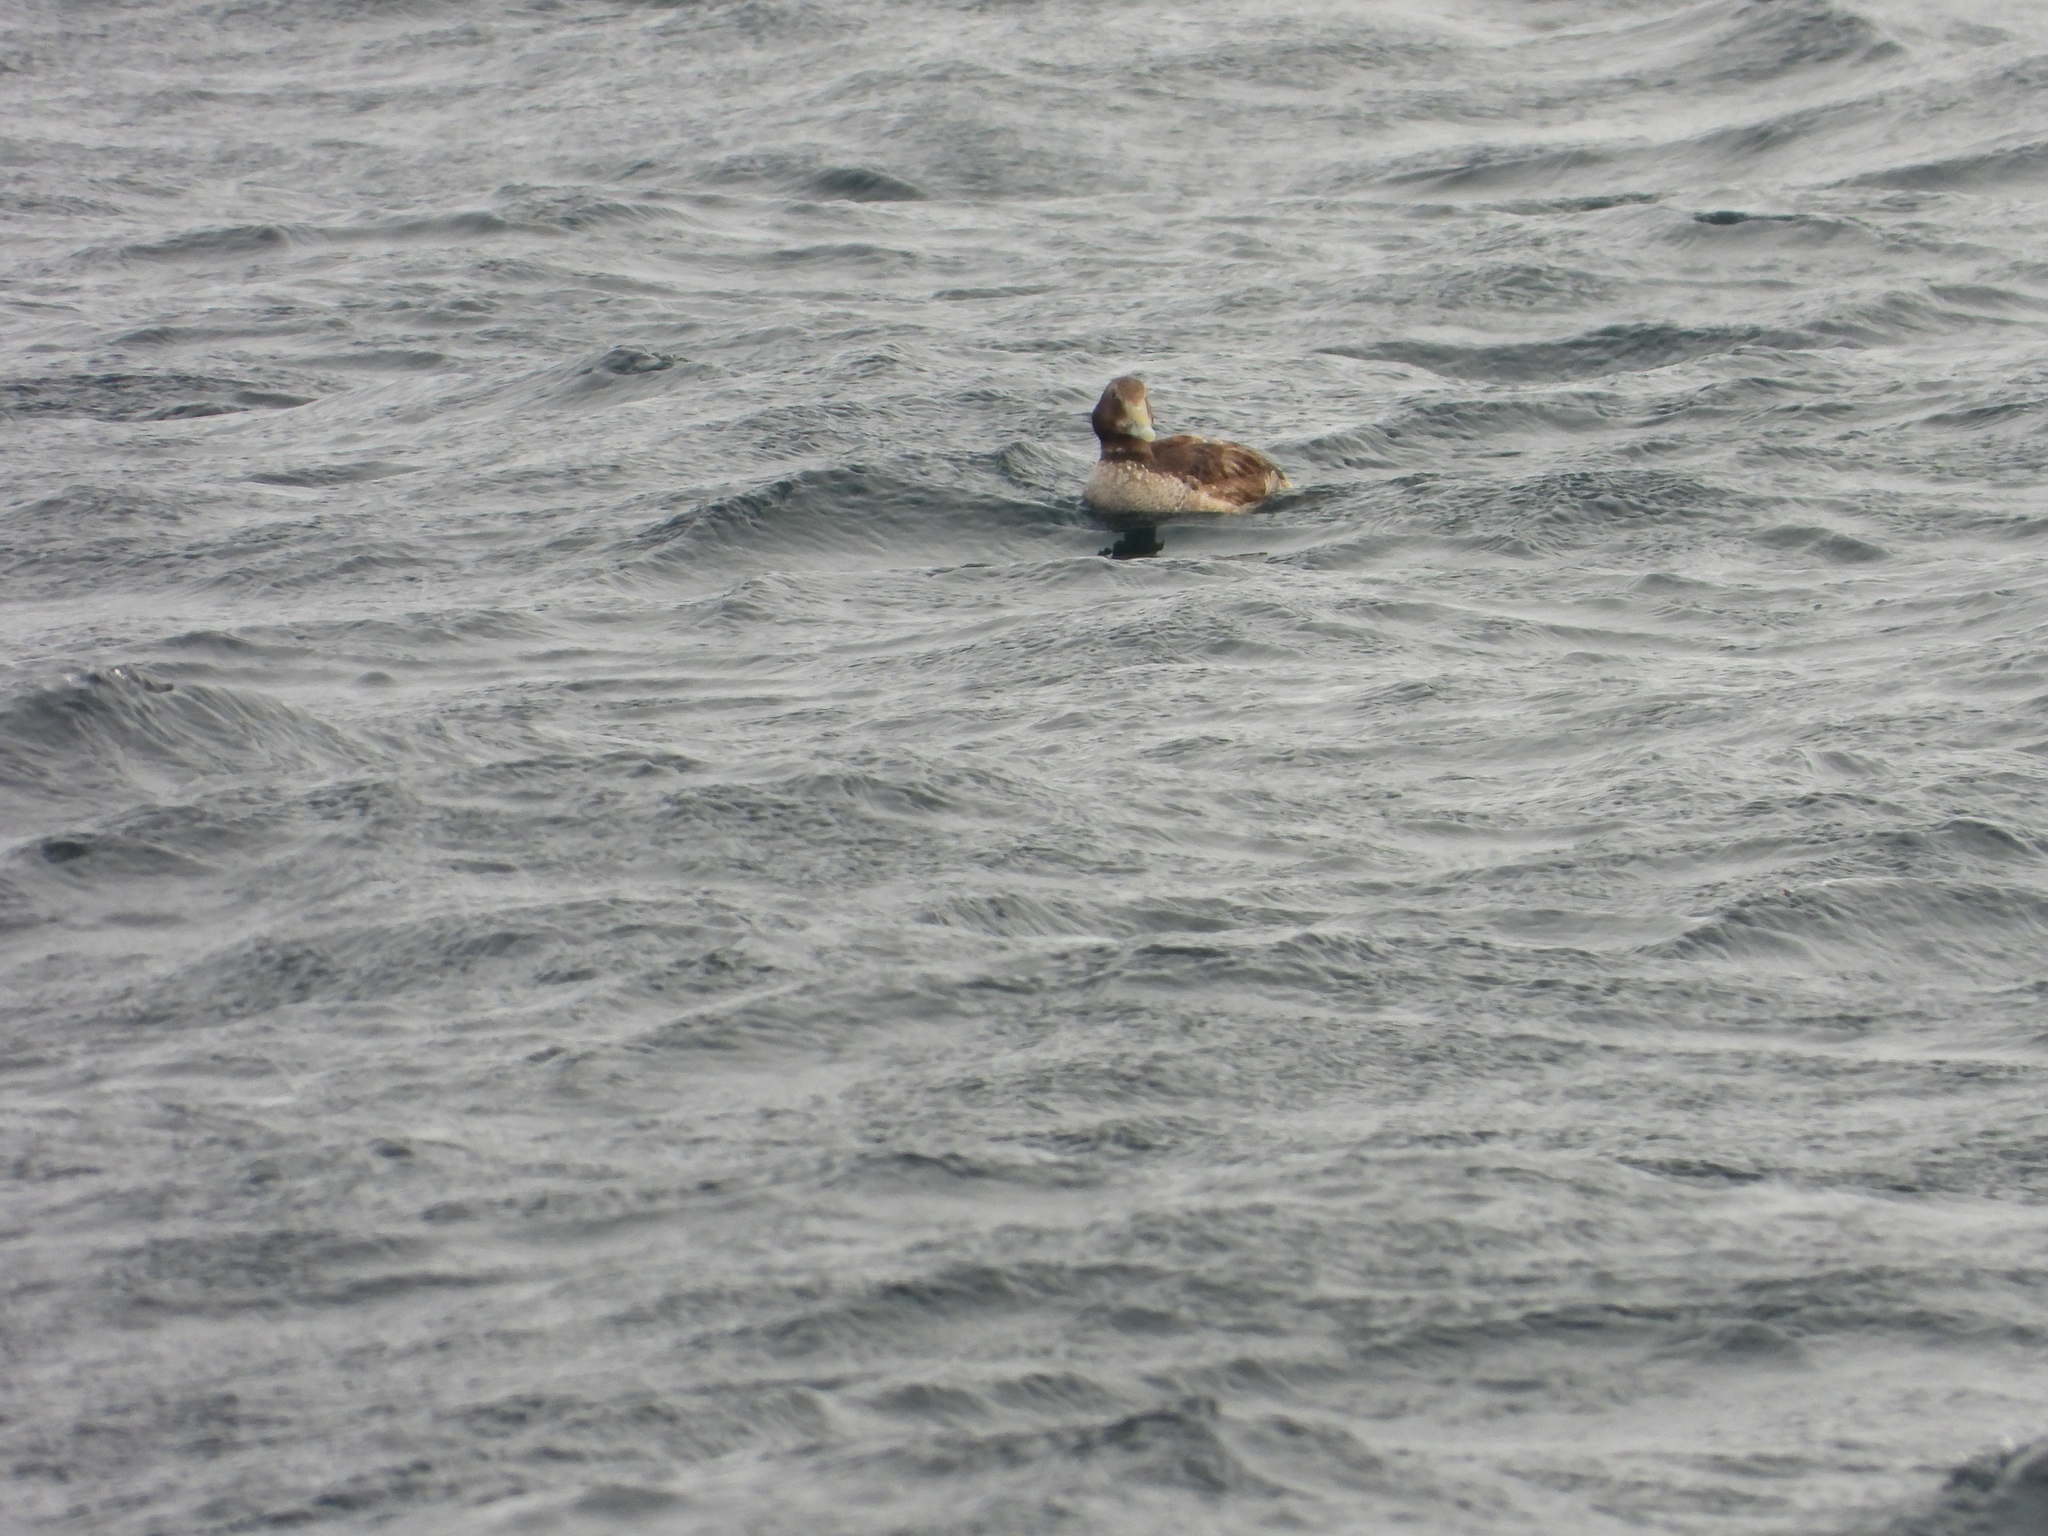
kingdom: Animalia
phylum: Chordata
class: Aves
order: Anseriformes
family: Anatidae
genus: Somateria
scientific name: Somateria mollissima
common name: Common eider
